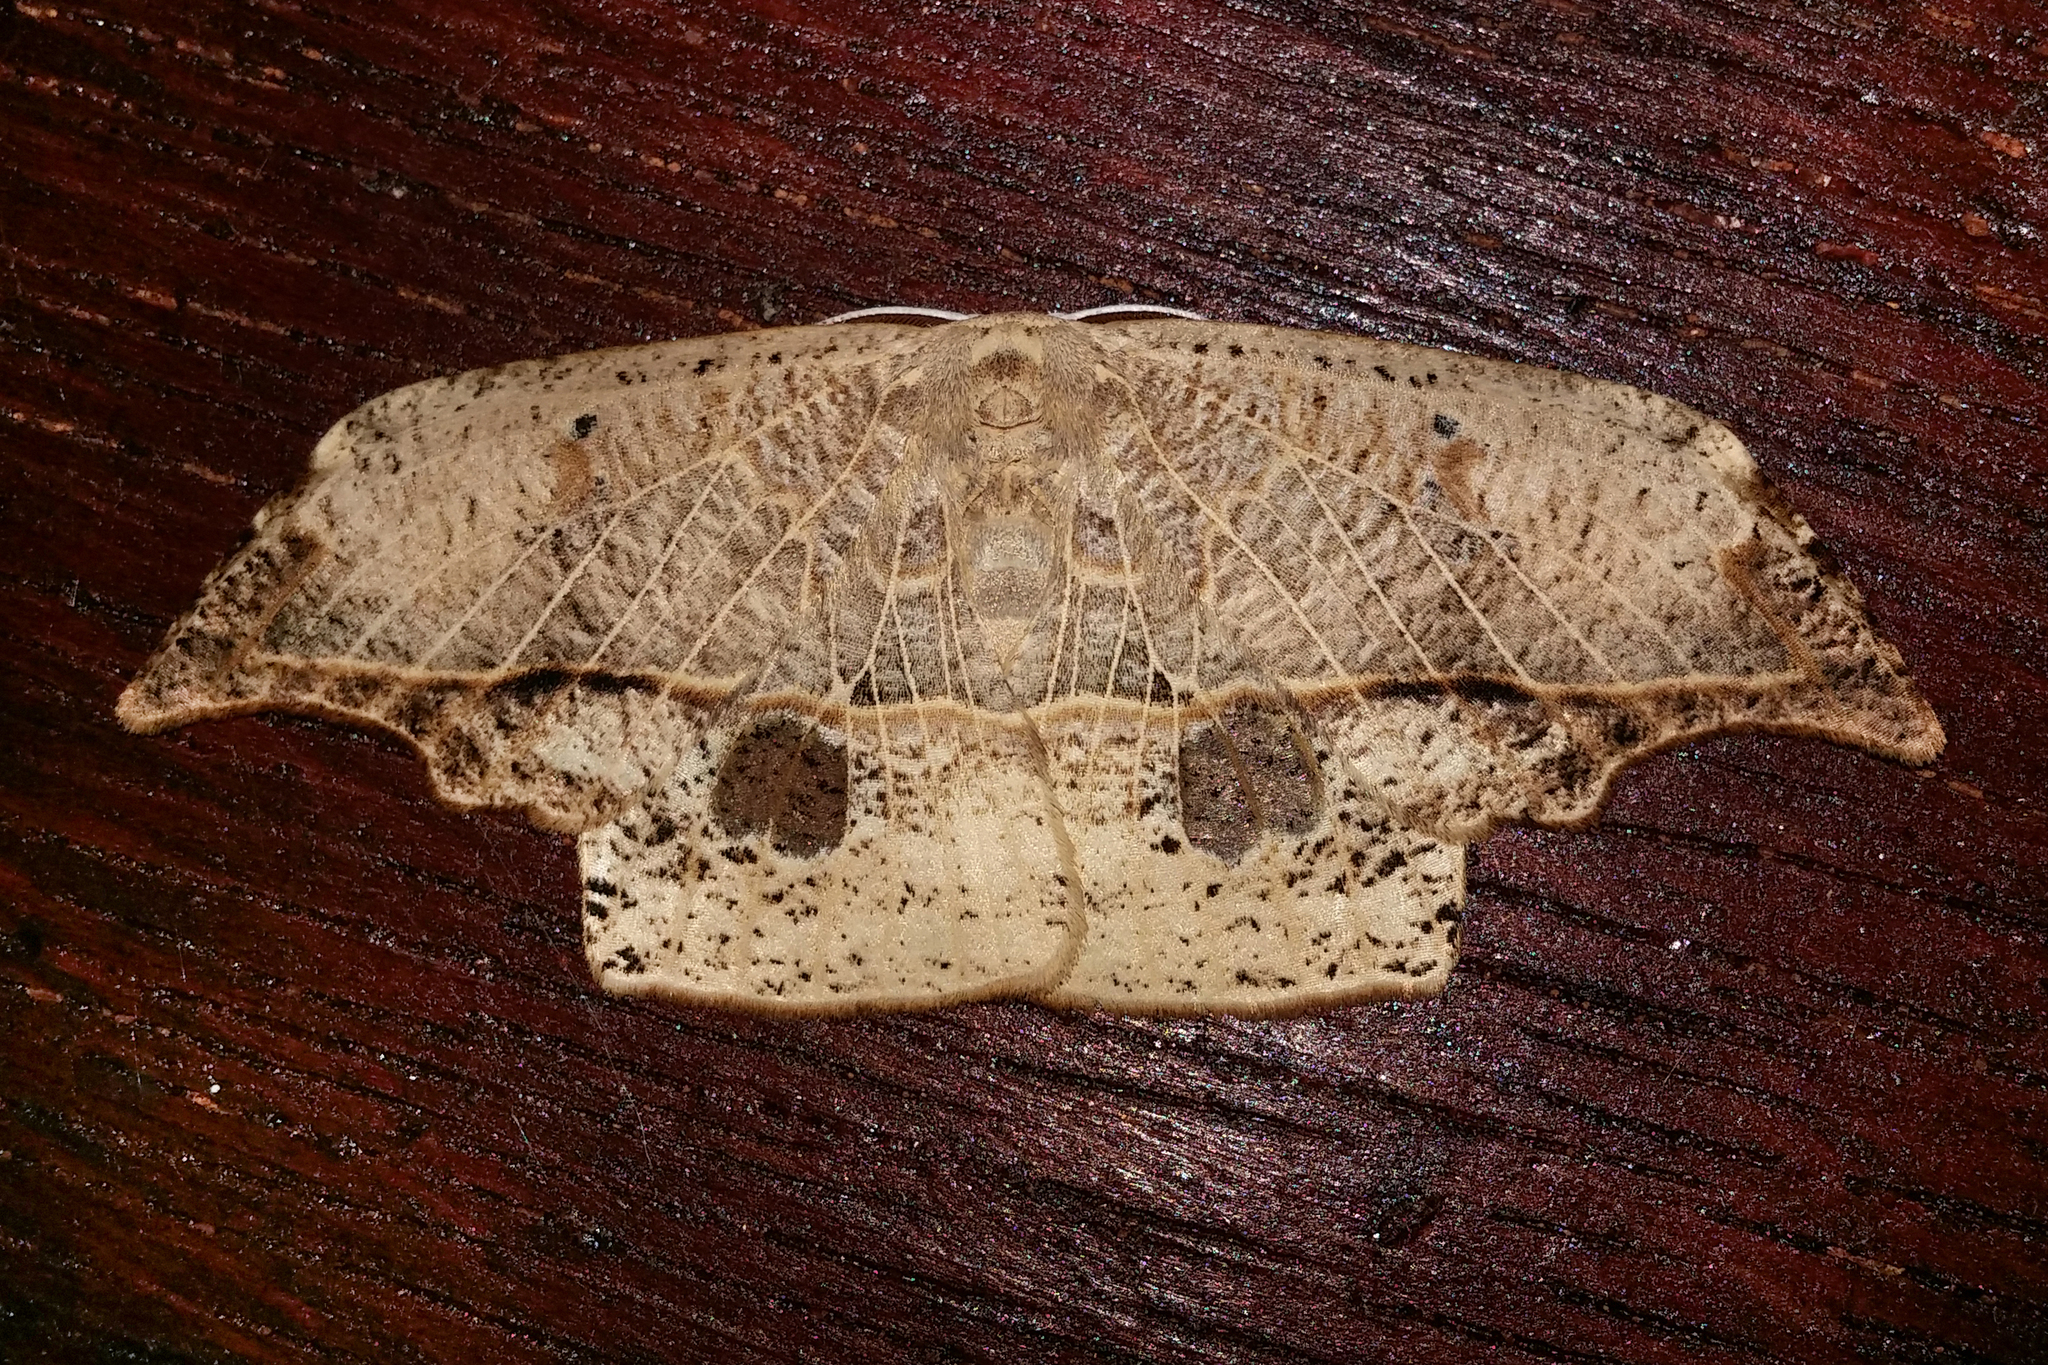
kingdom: Animalia
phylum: Arthropoda
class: Insecta
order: Lepidoptera
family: Drepanidae
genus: Canucha
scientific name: Canucha curvaria
